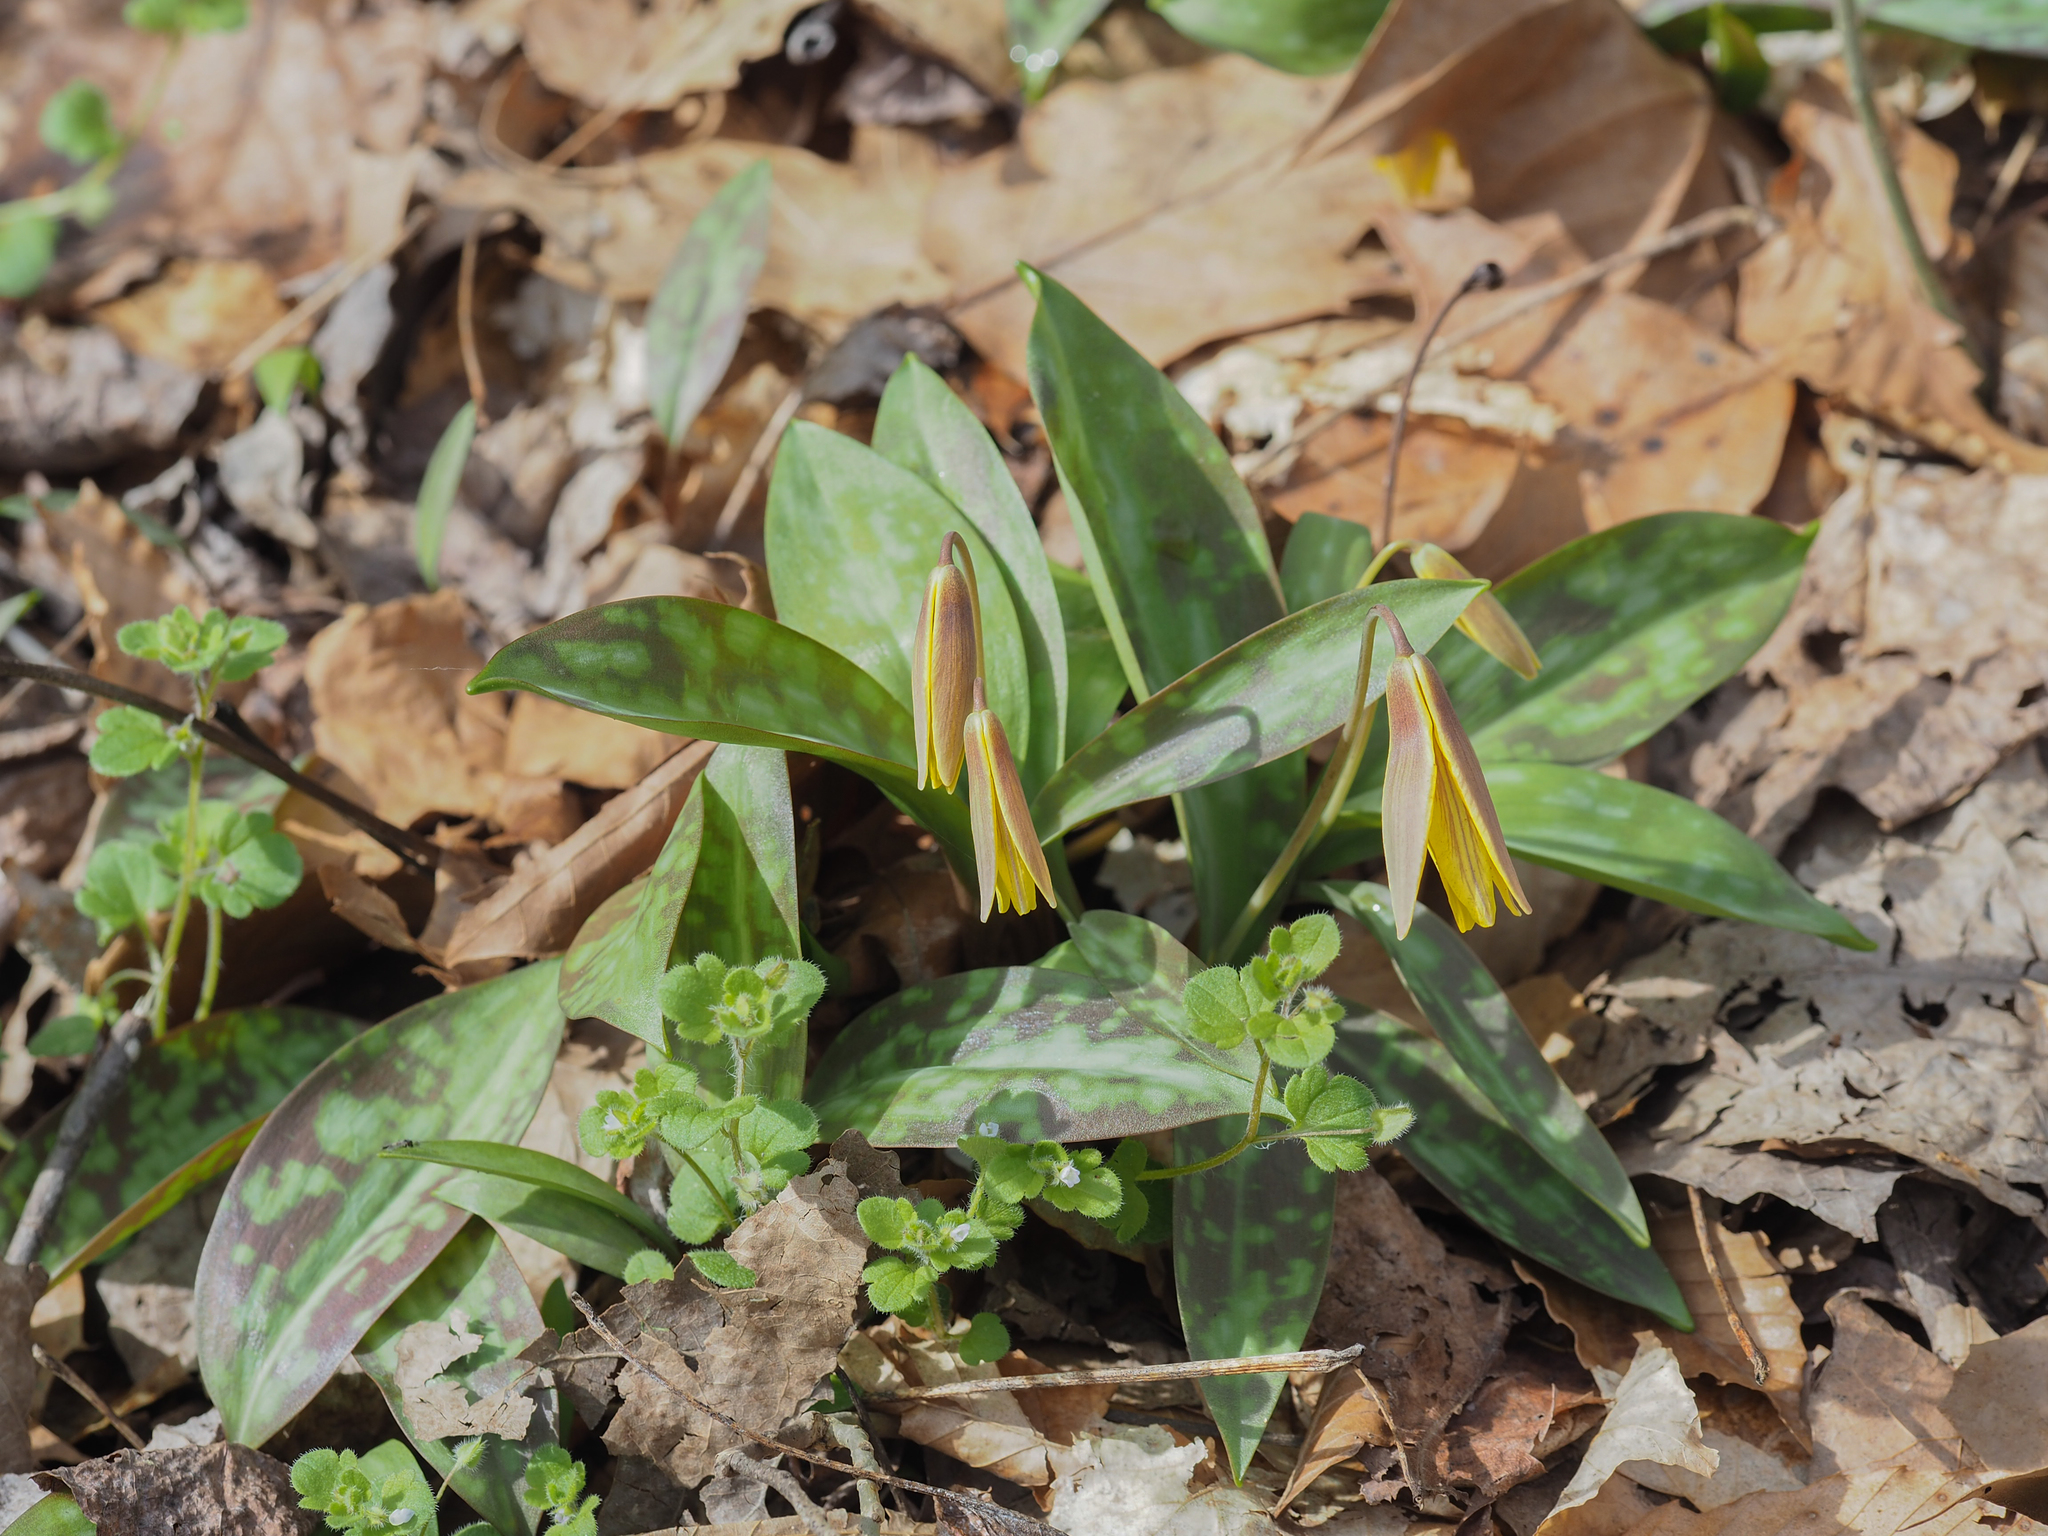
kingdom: Plantae
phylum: Tracheophyta
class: Liliopsida
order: Liliales
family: Liliaceae
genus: Erythronium
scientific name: Erythronium americanum
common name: Yellow adder's-tongue
